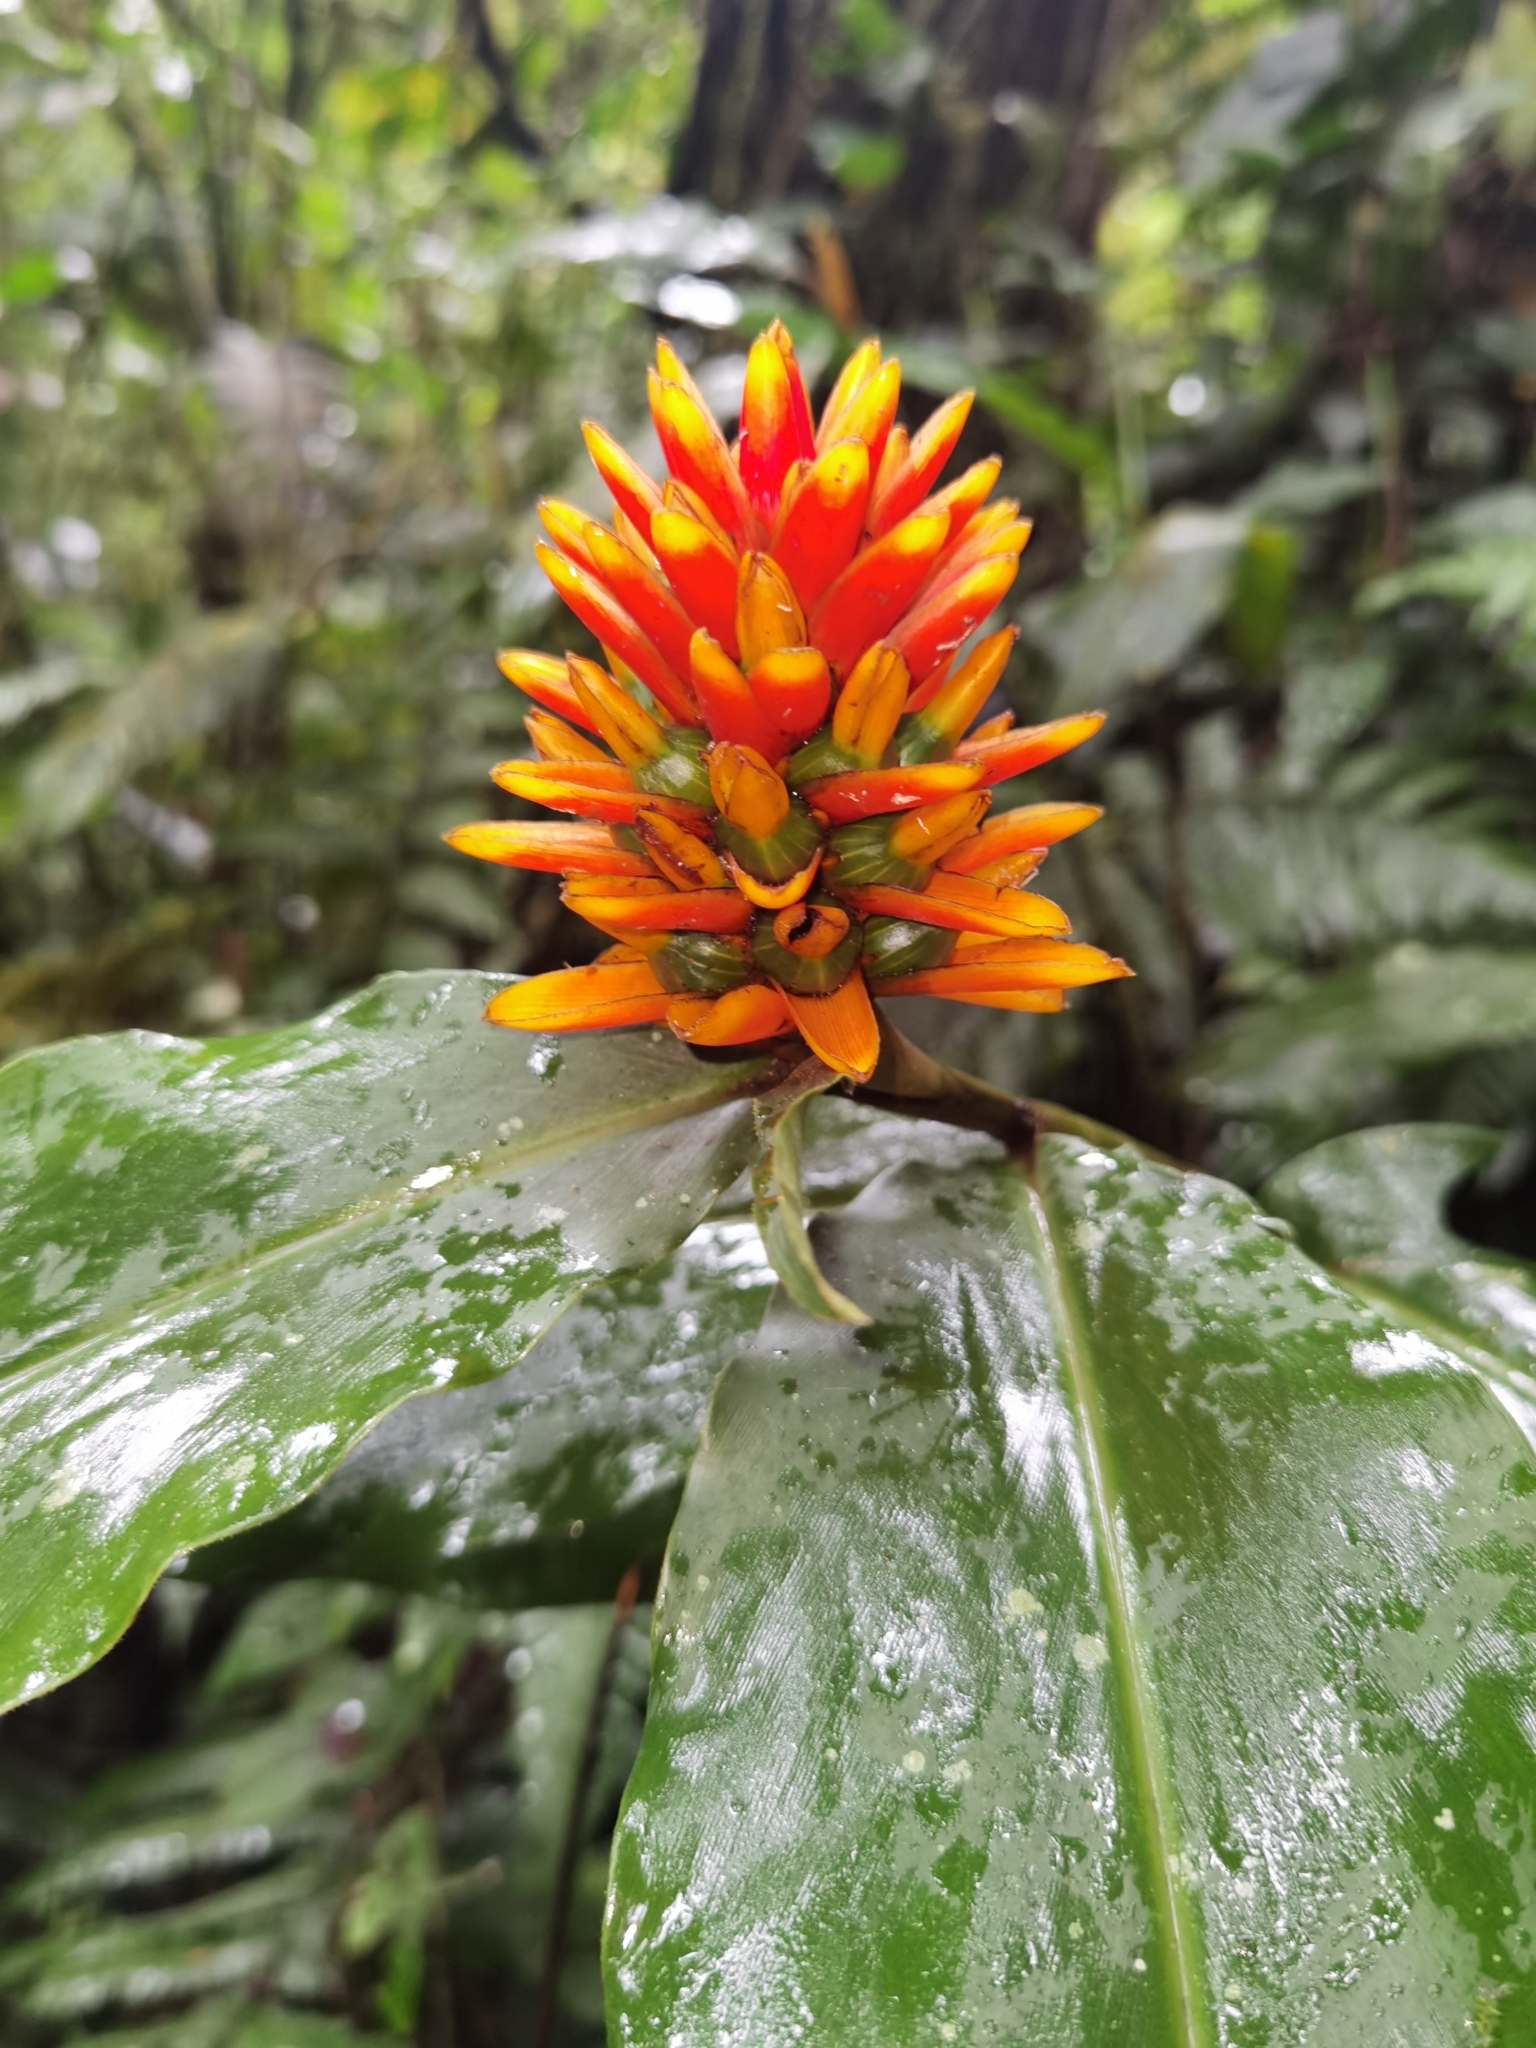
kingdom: Plantae
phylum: Tracheophyta
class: Liliopsida
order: Zingiberales
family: Zingiberaceae
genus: Renealmia
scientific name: Renealmia cernua
